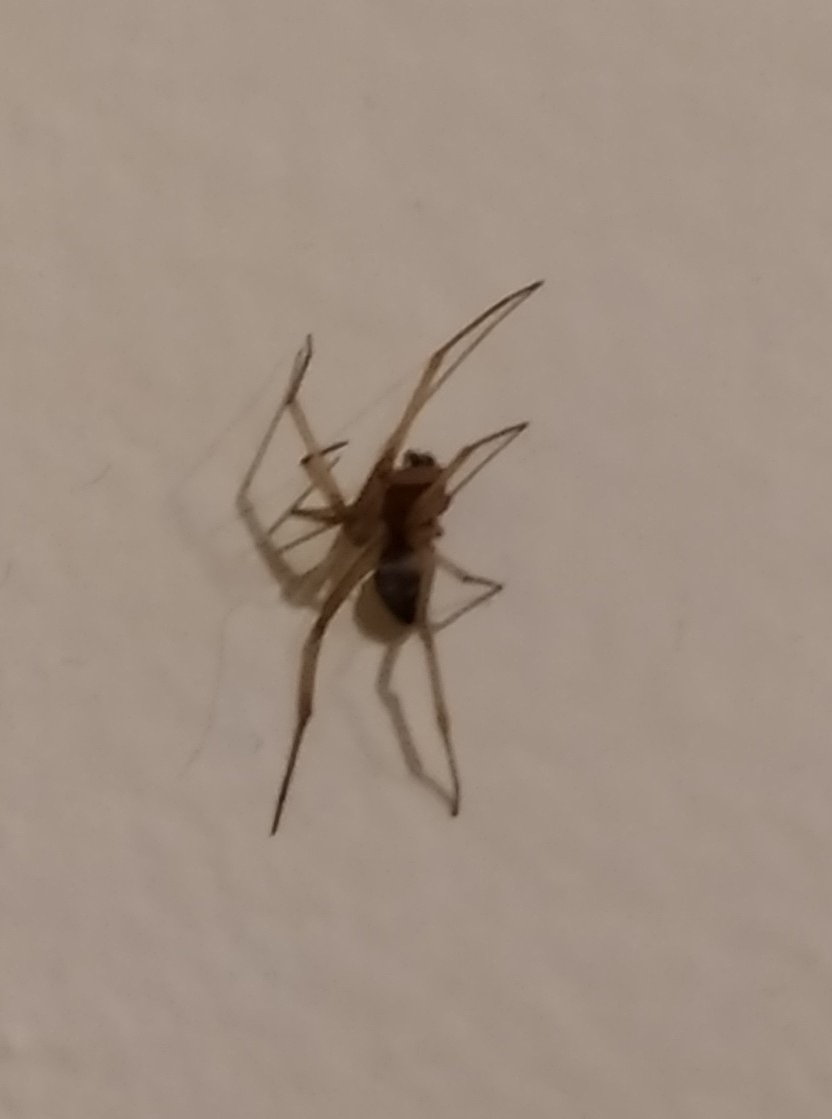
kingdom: Animalia
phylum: Arthropoda
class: Arachnida
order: Araneae
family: Theridiidae
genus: Steatoda
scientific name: Steatoda grossa
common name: False black widow
